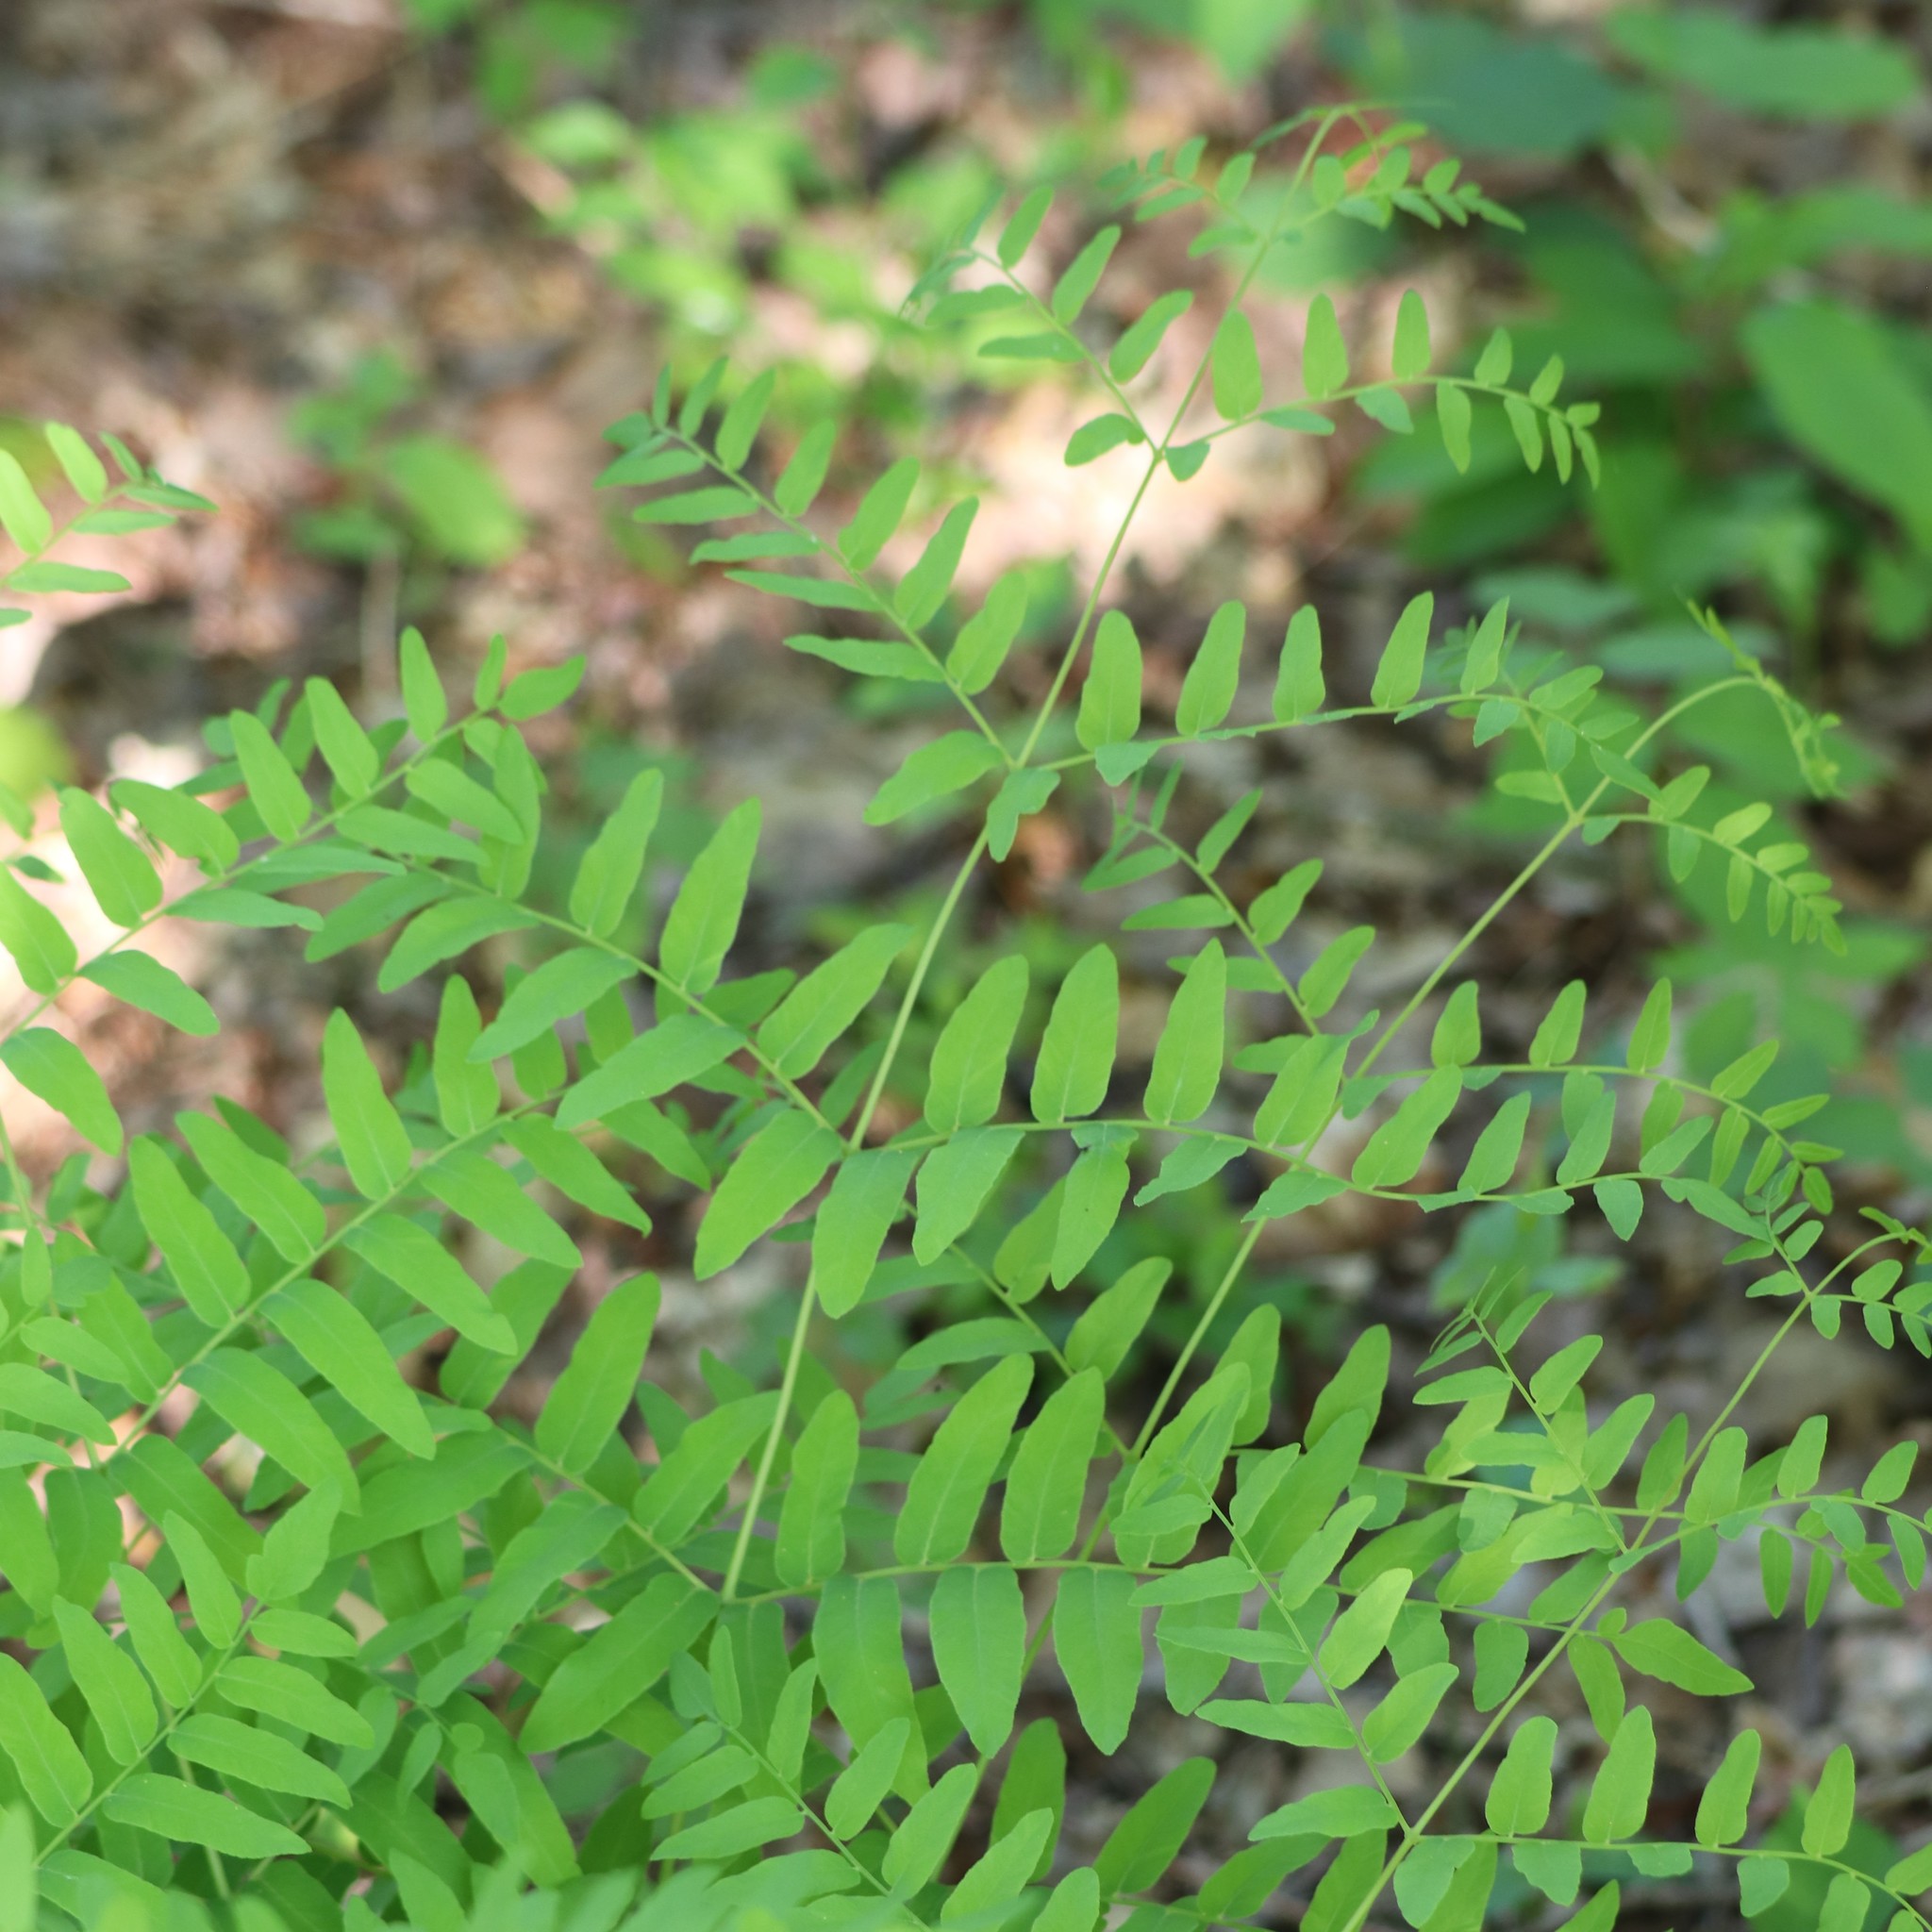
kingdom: Plantae
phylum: Tracheophyta
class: Polypodiopsida
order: Osmundales
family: Osmundaceae
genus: Osmunda
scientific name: Osmunda spectabilis
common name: American royal fern
